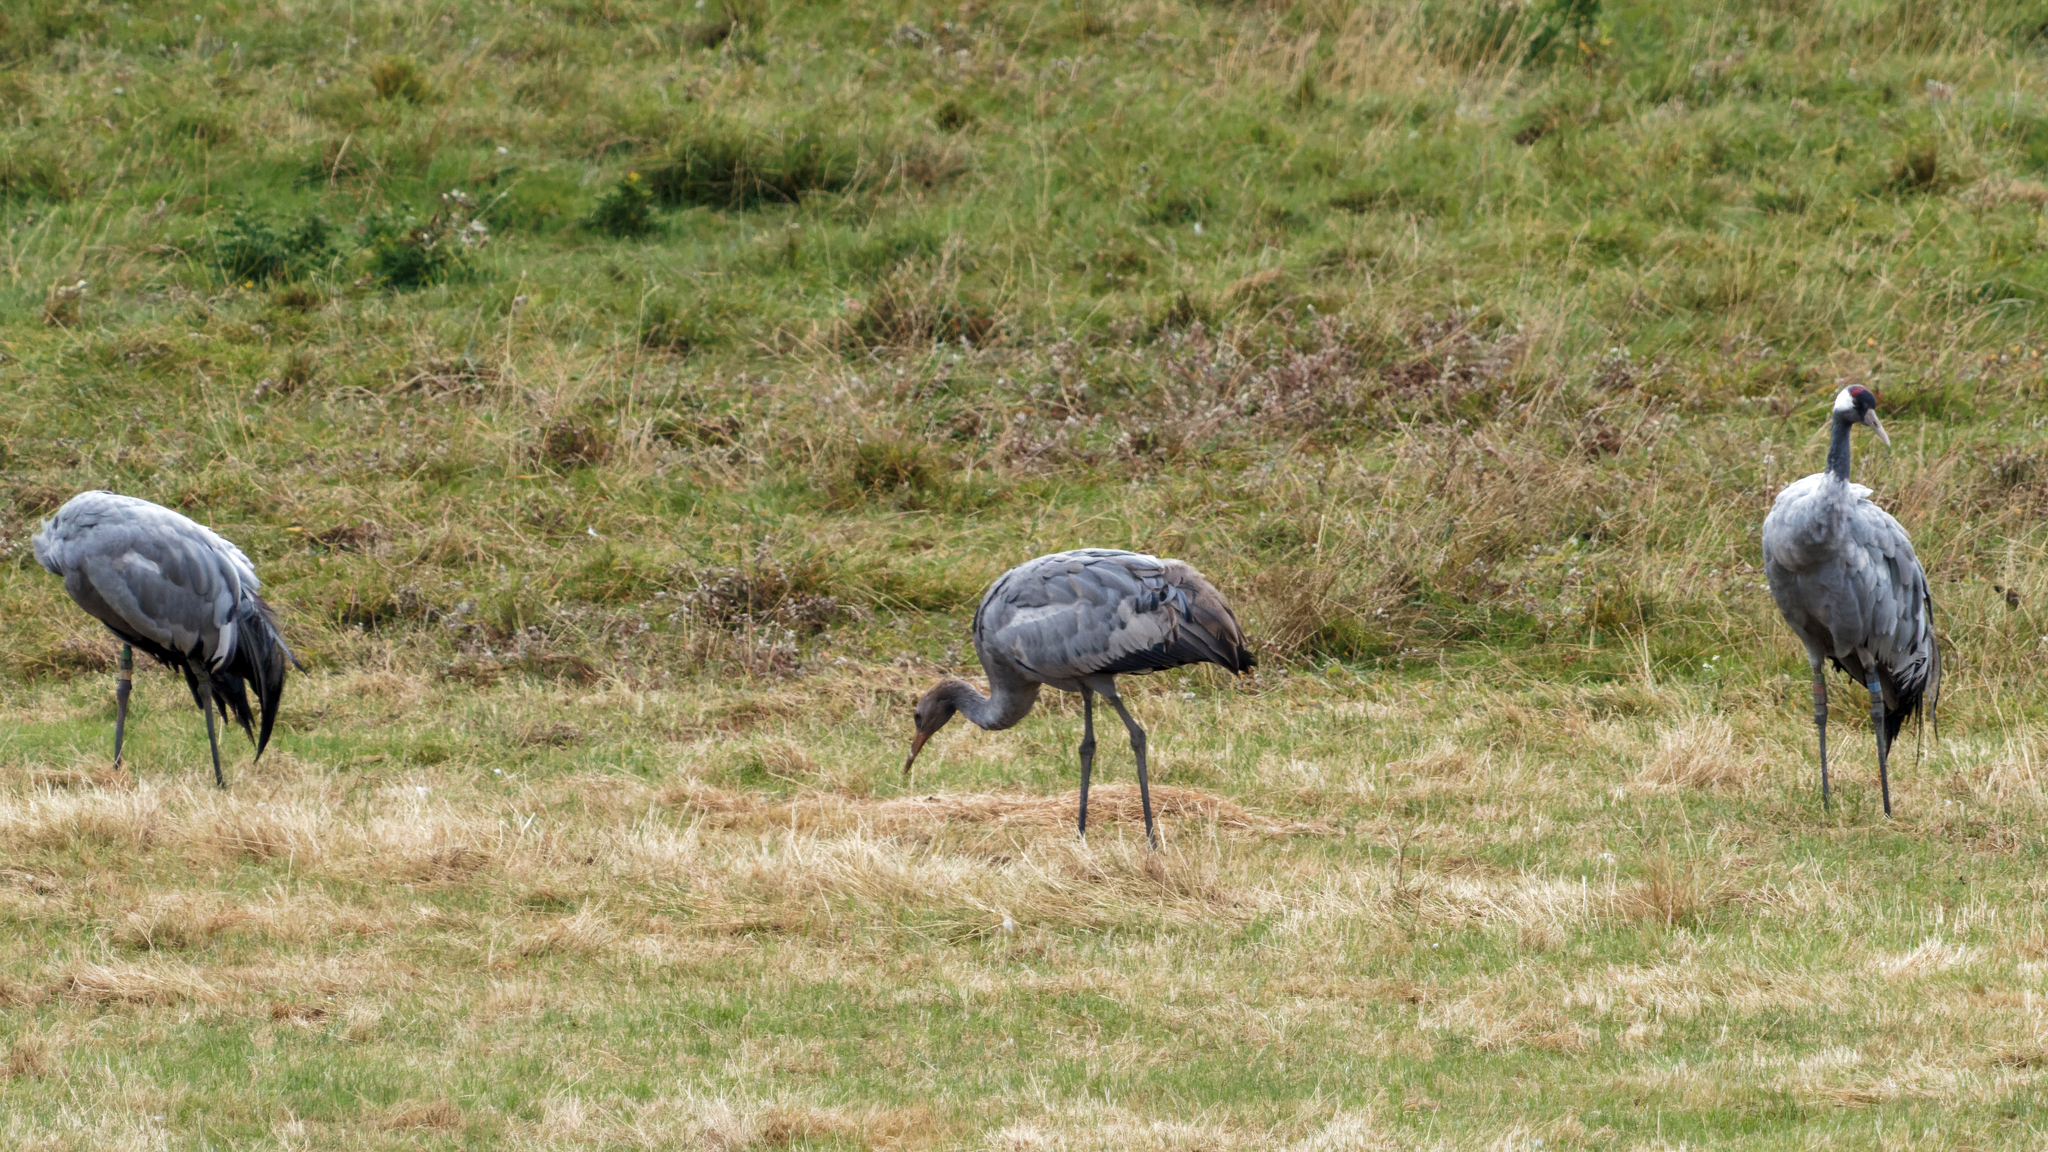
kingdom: Animalia
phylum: Chordata
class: Aves
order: Gruiformes
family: Gruidae
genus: Grus
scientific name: Grus grus
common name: Common crane
